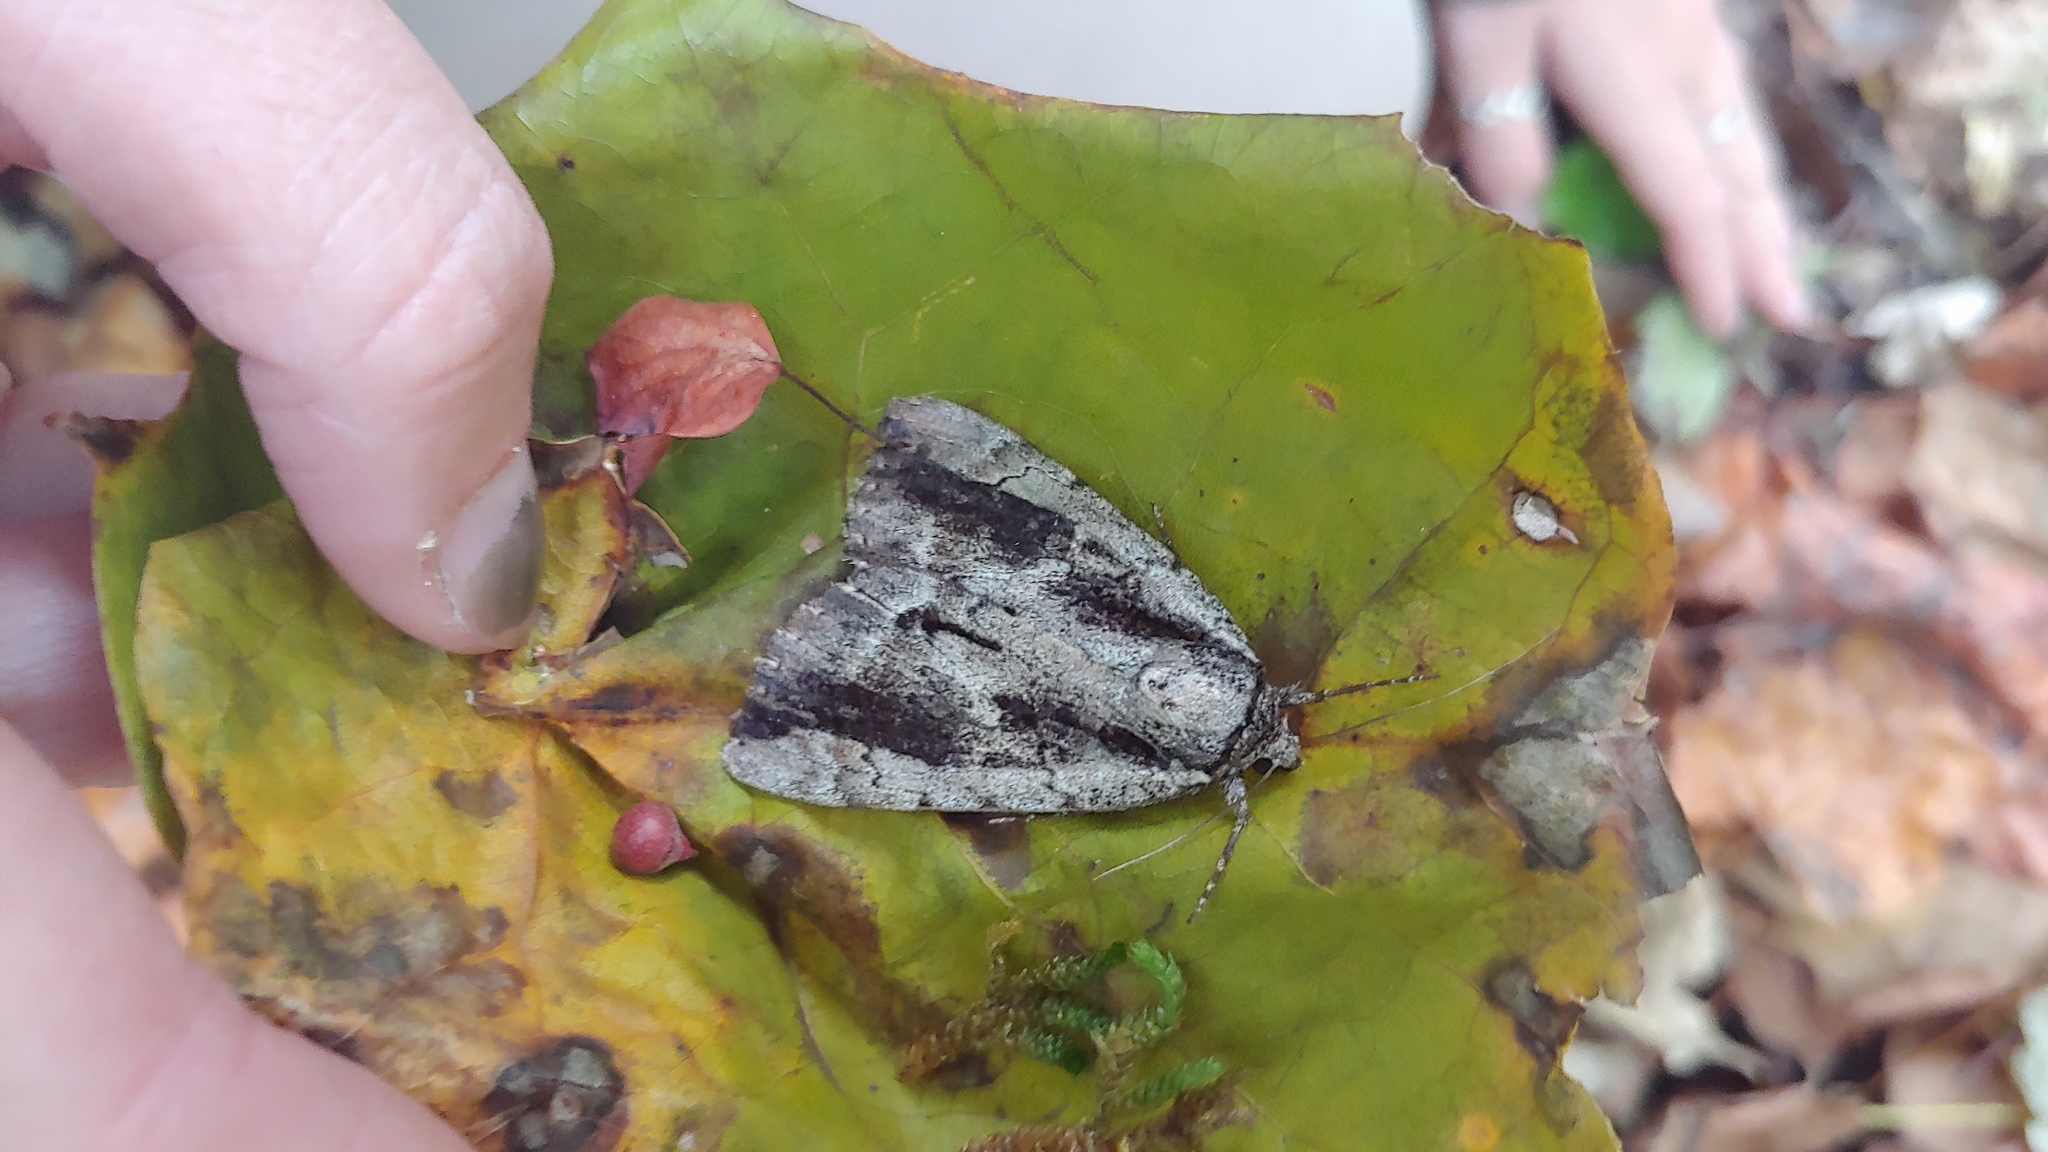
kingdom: Animalia
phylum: Arthropoda
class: Insecta
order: Lepidoptera
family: Erebidae
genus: Catocala
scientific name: Catocala angusi
